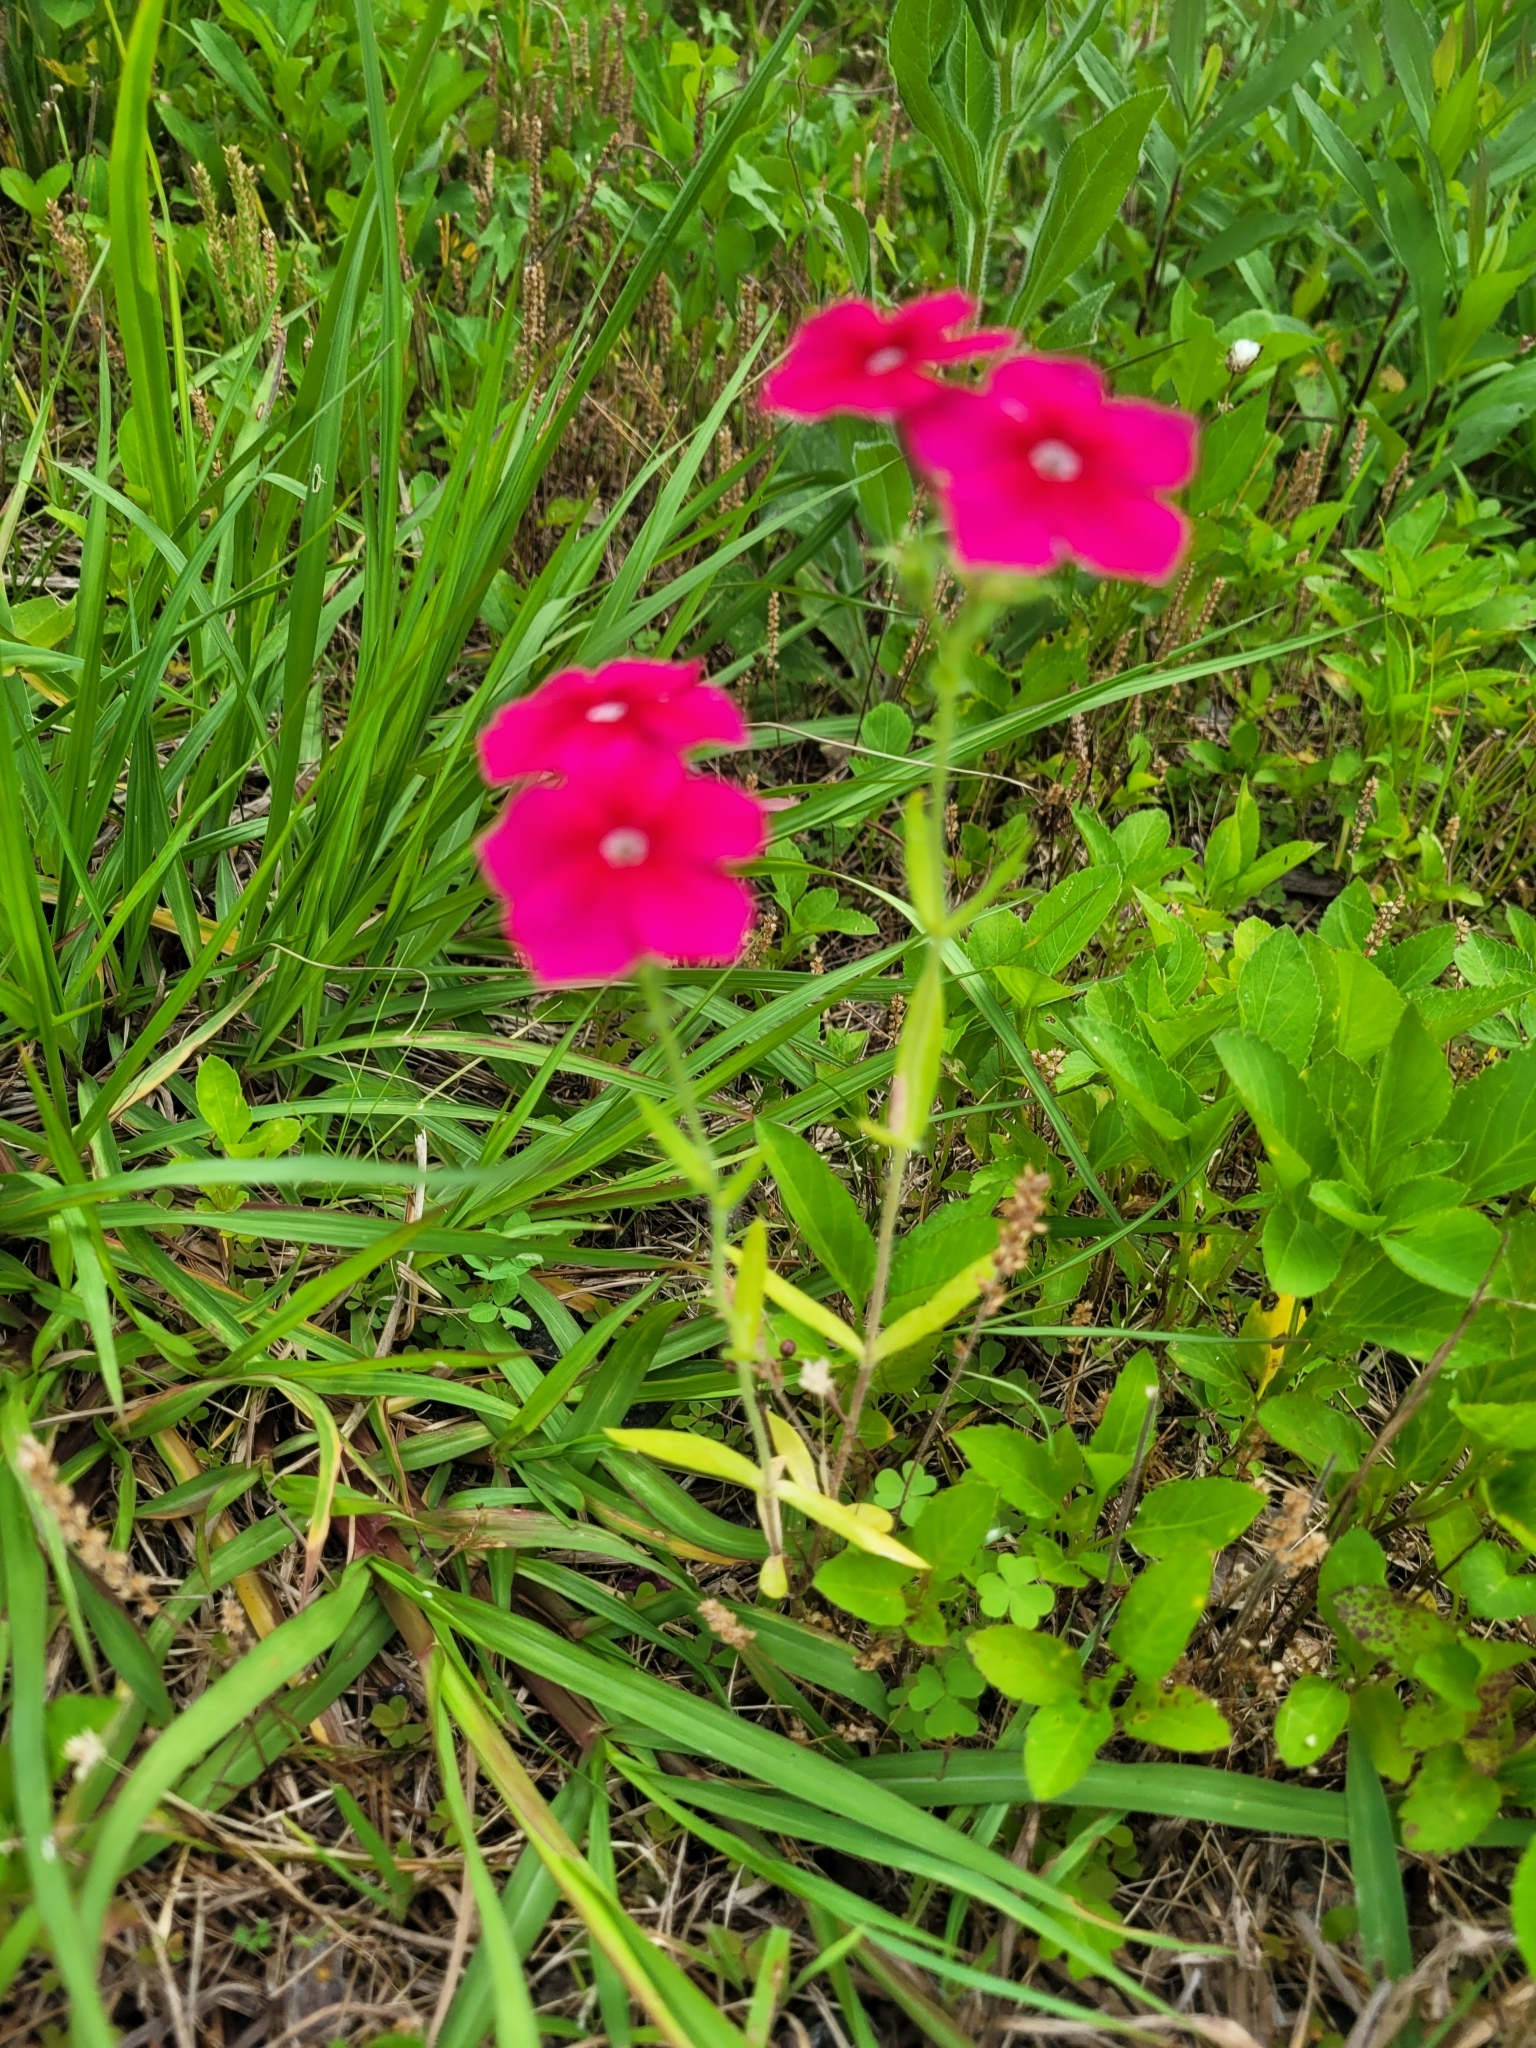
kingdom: Plantae
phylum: Tracheophyta
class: Magnoliopsida
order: Ericales
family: Polemoniaceae
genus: Phlox
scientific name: Phlox drummondii
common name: Drummond's phlox
